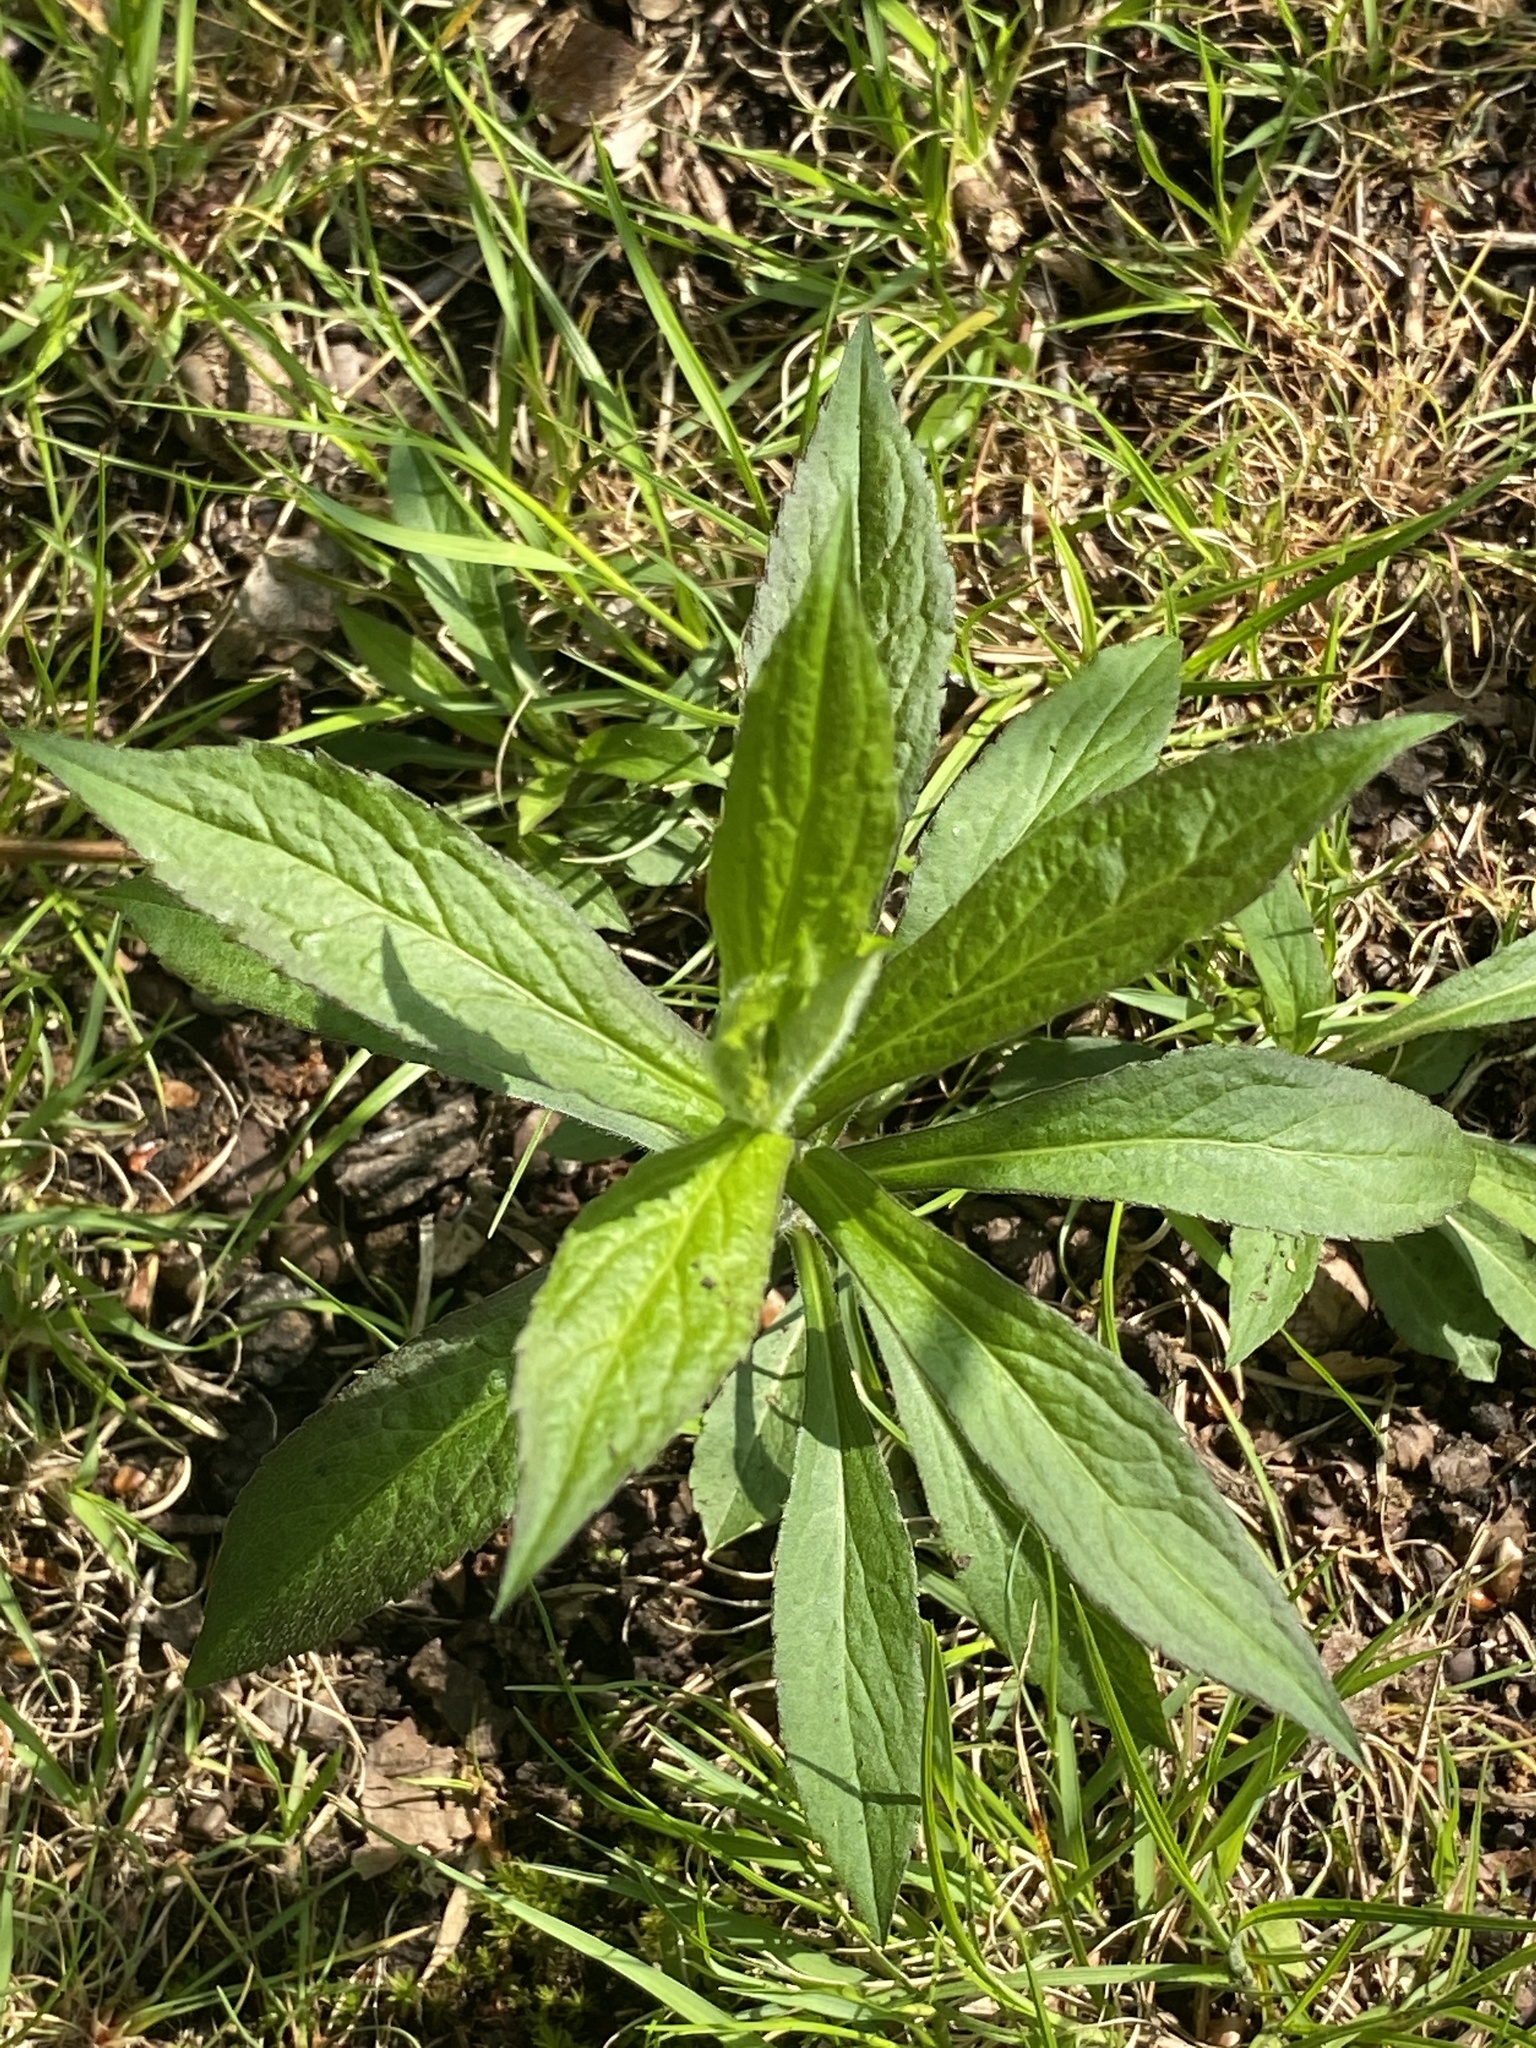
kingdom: Plantae
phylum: Tracheophyta
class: Magnoliopsida
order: Asterales
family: Asteraceae
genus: Solidago
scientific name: Solidago rugosa
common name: Rough-stemmed goldenrod
